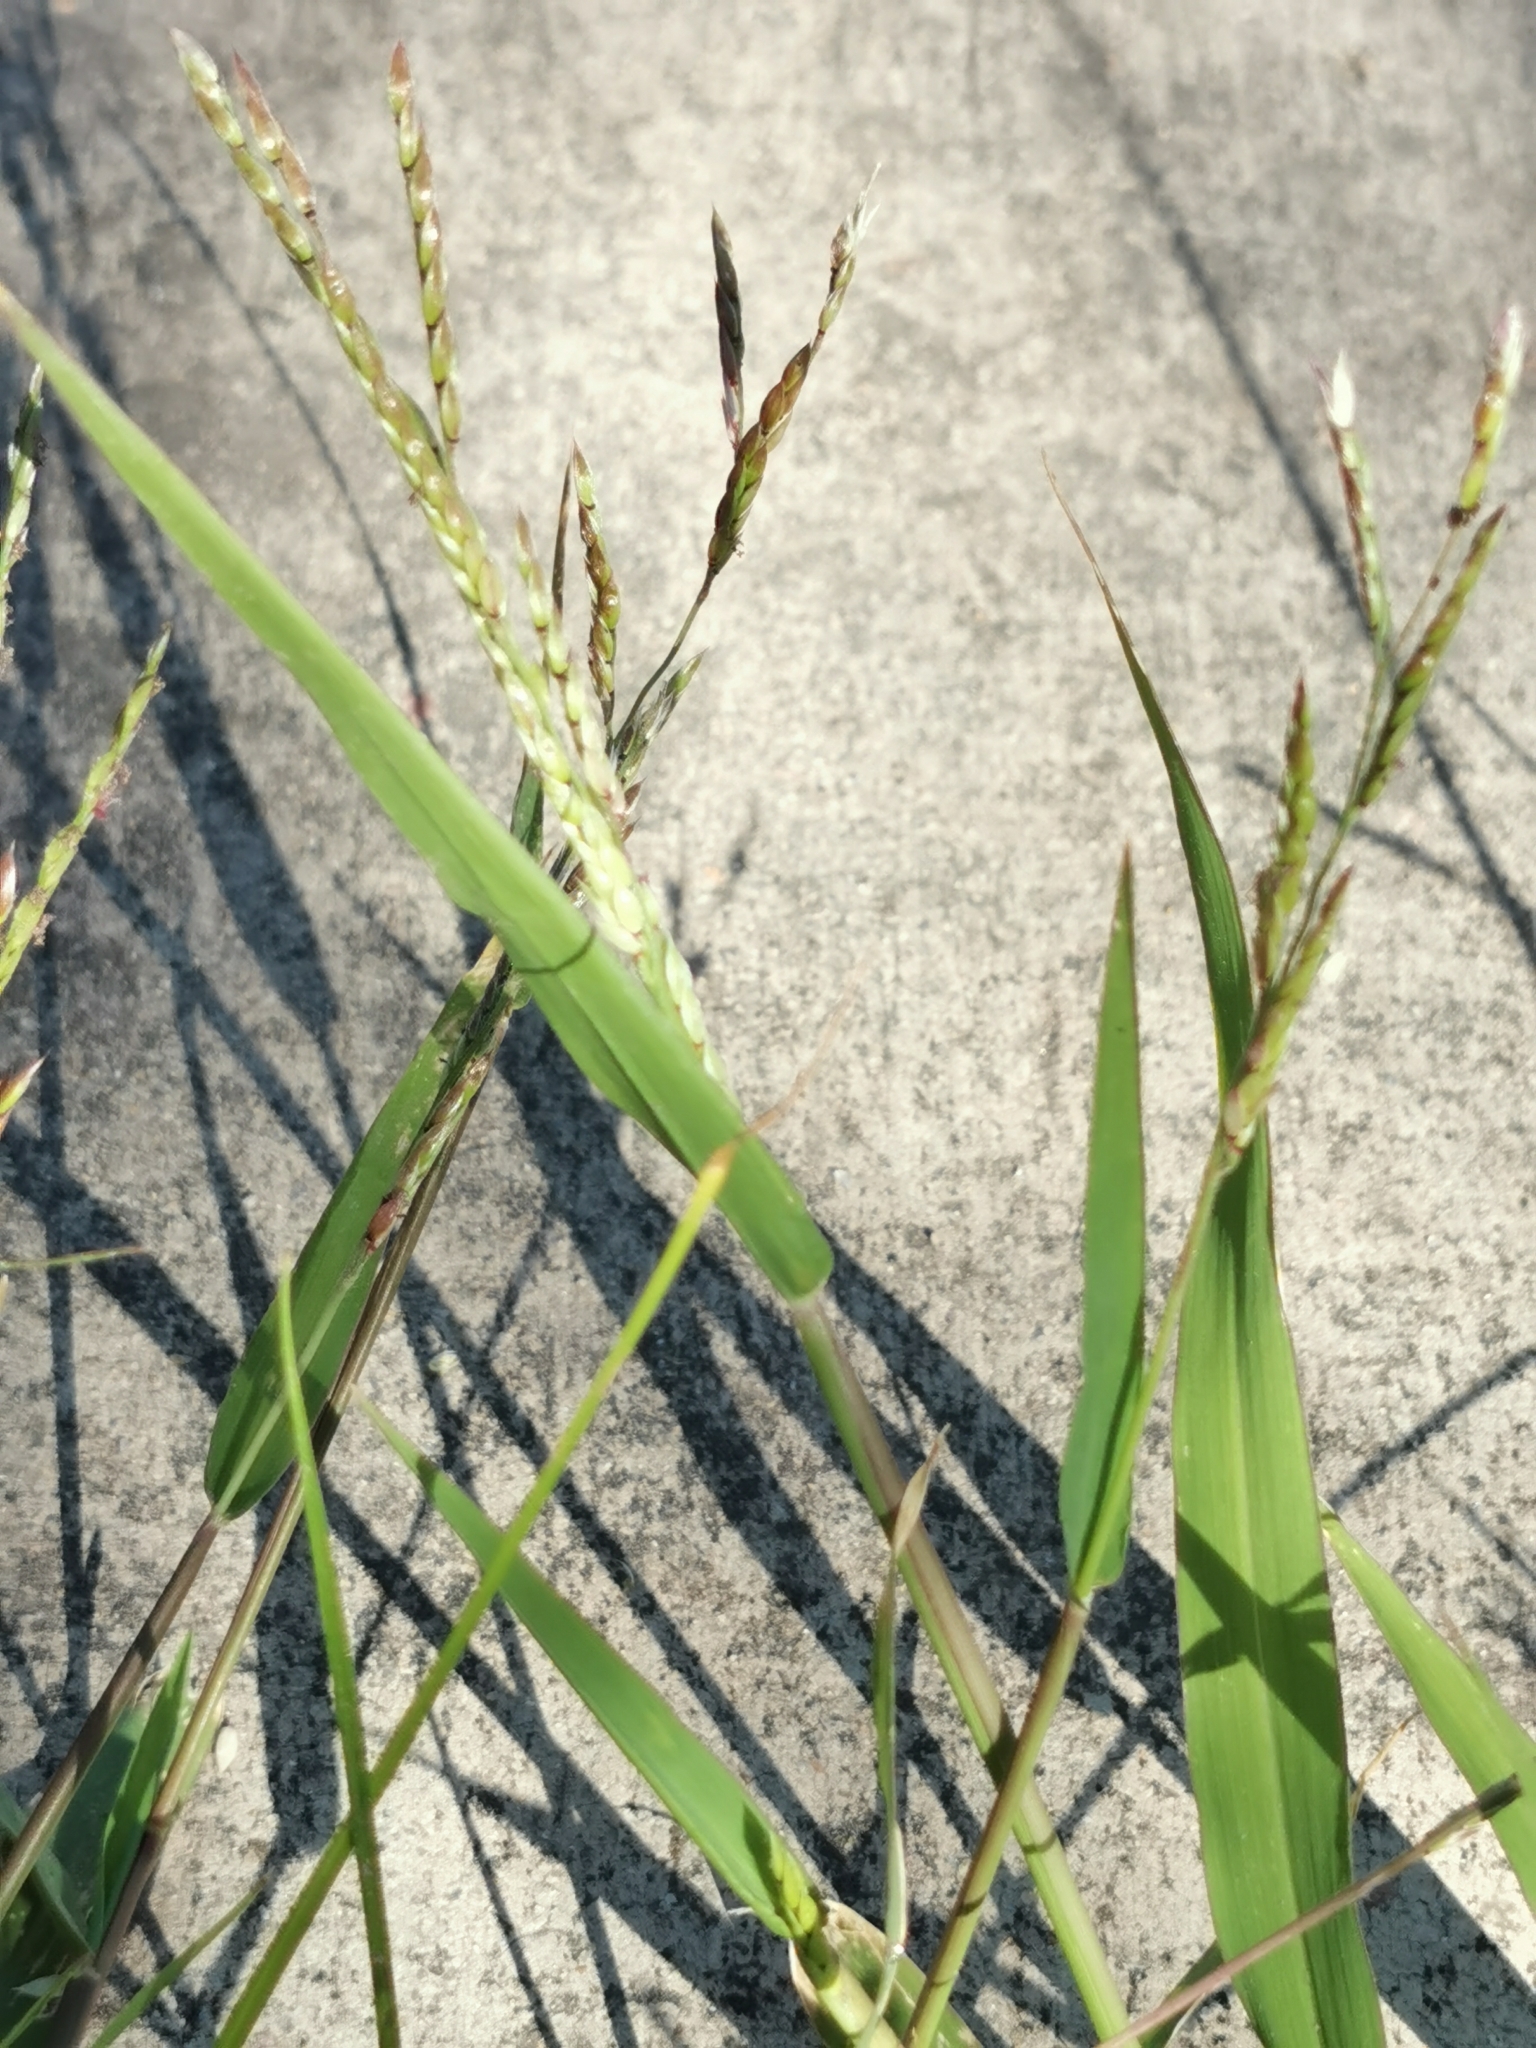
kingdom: Plantae
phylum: Tracheophyta
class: Liliopsida
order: Poales
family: Poaceae
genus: Eriochloa
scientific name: Eriochloa acuminata
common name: Southwestern cup grass
